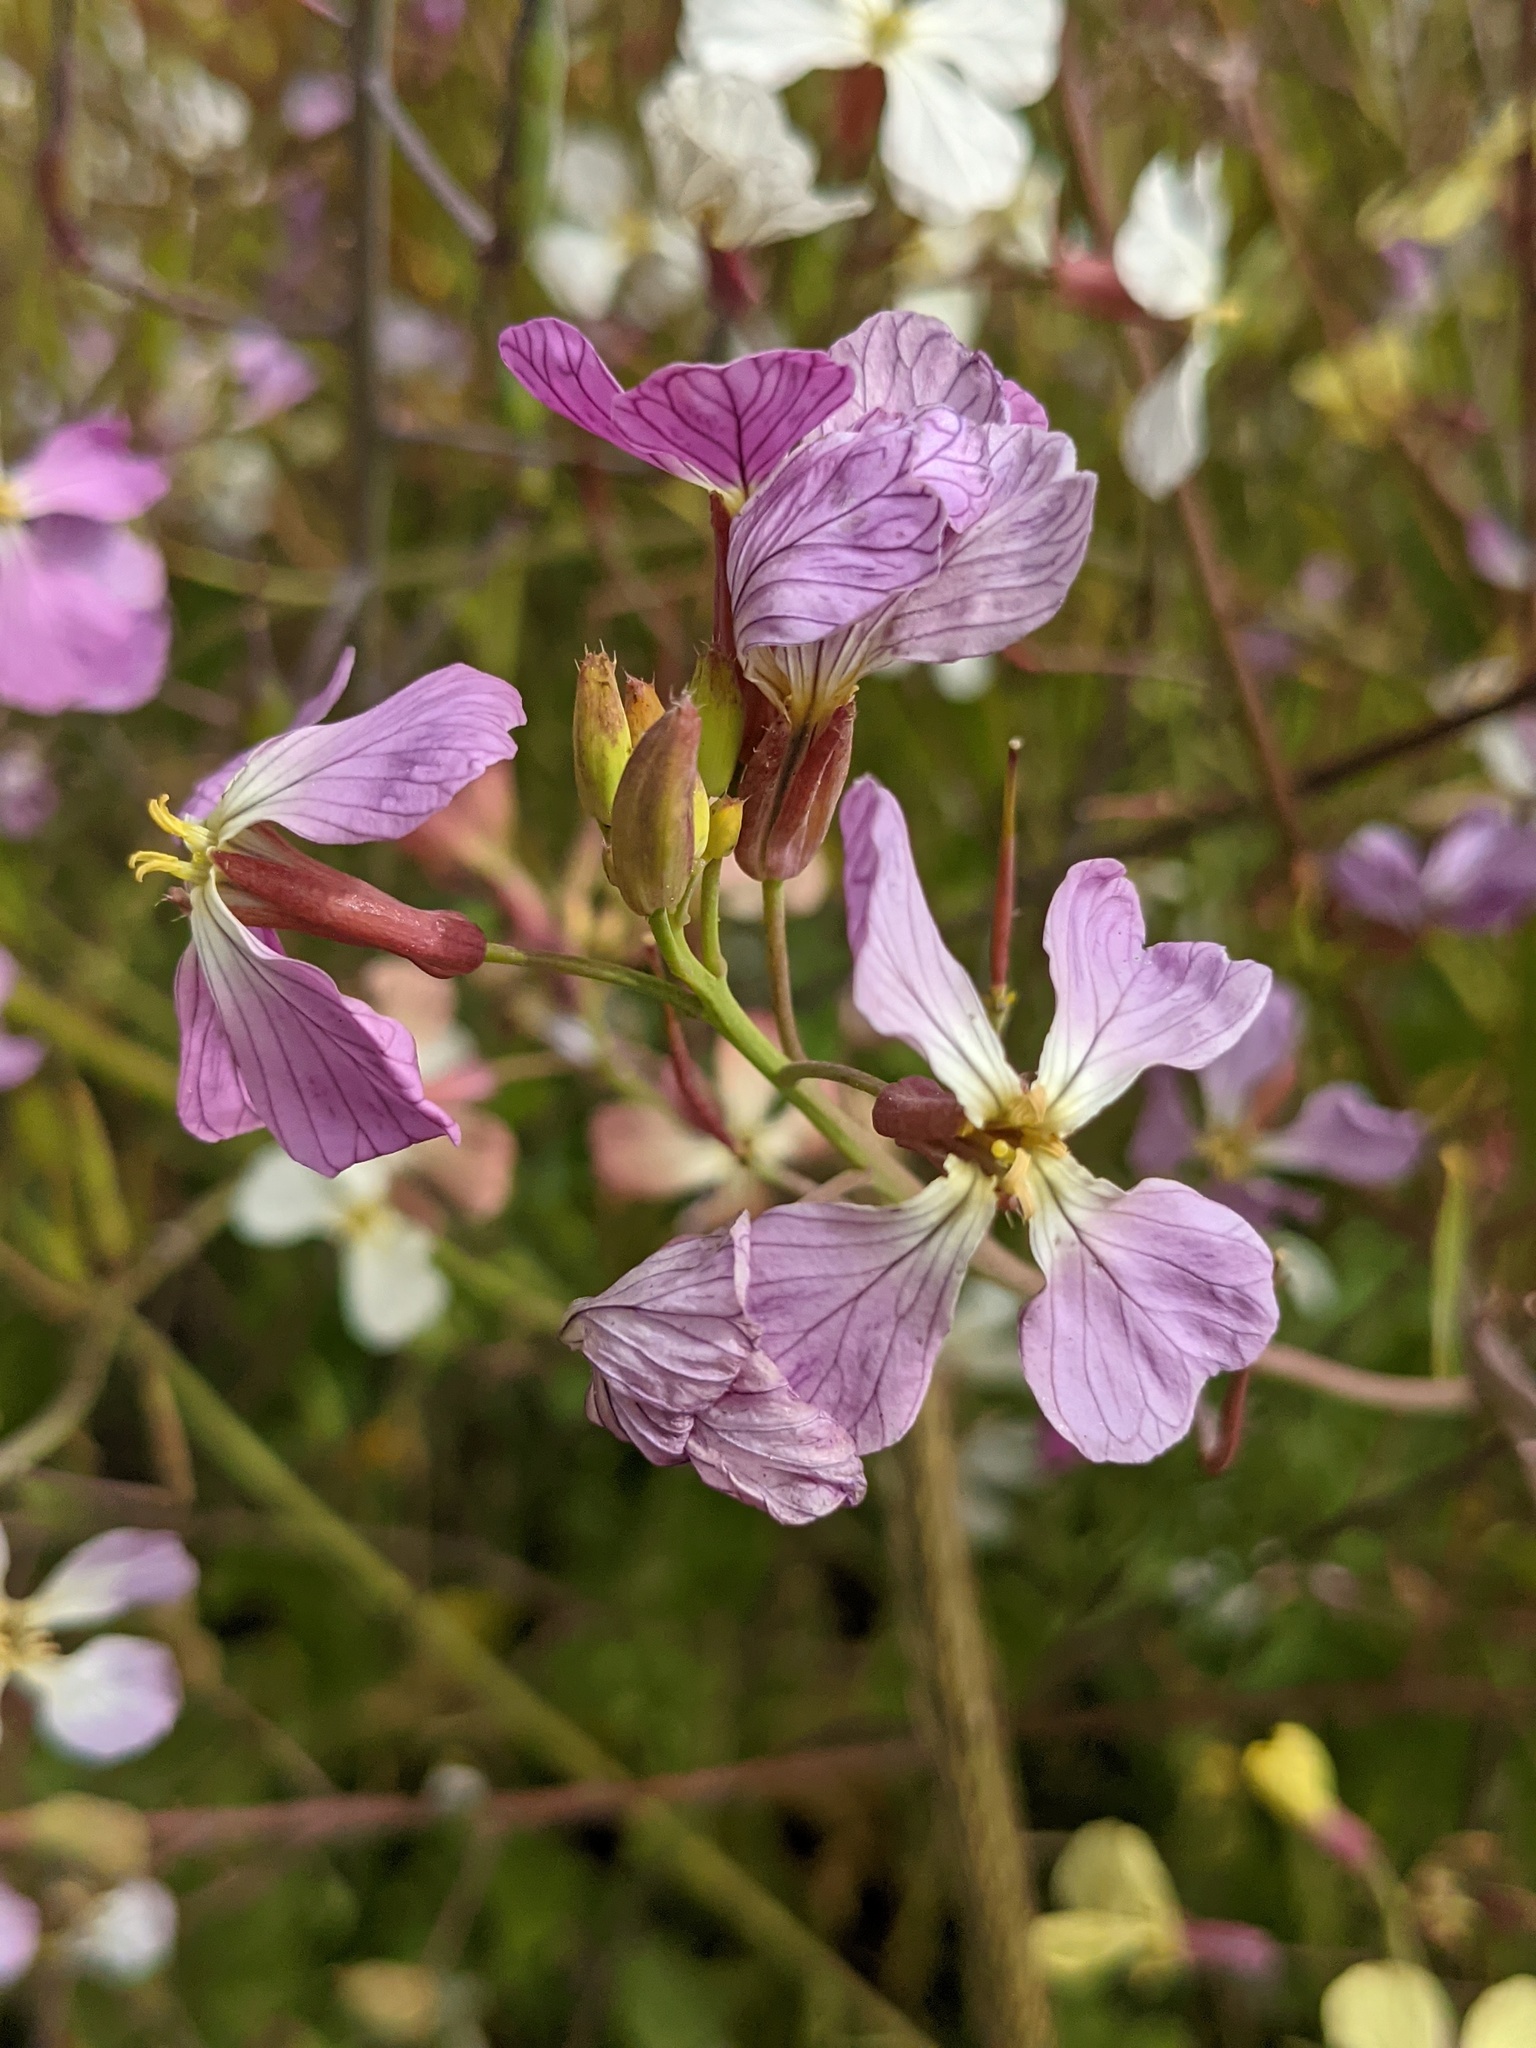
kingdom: Plantae
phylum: Tracheophyta
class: Magnoliopsida
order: Brassicales
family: Brassicaceae
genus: Raphanus
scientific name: Raphanus sativus
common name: Cultivated radish
